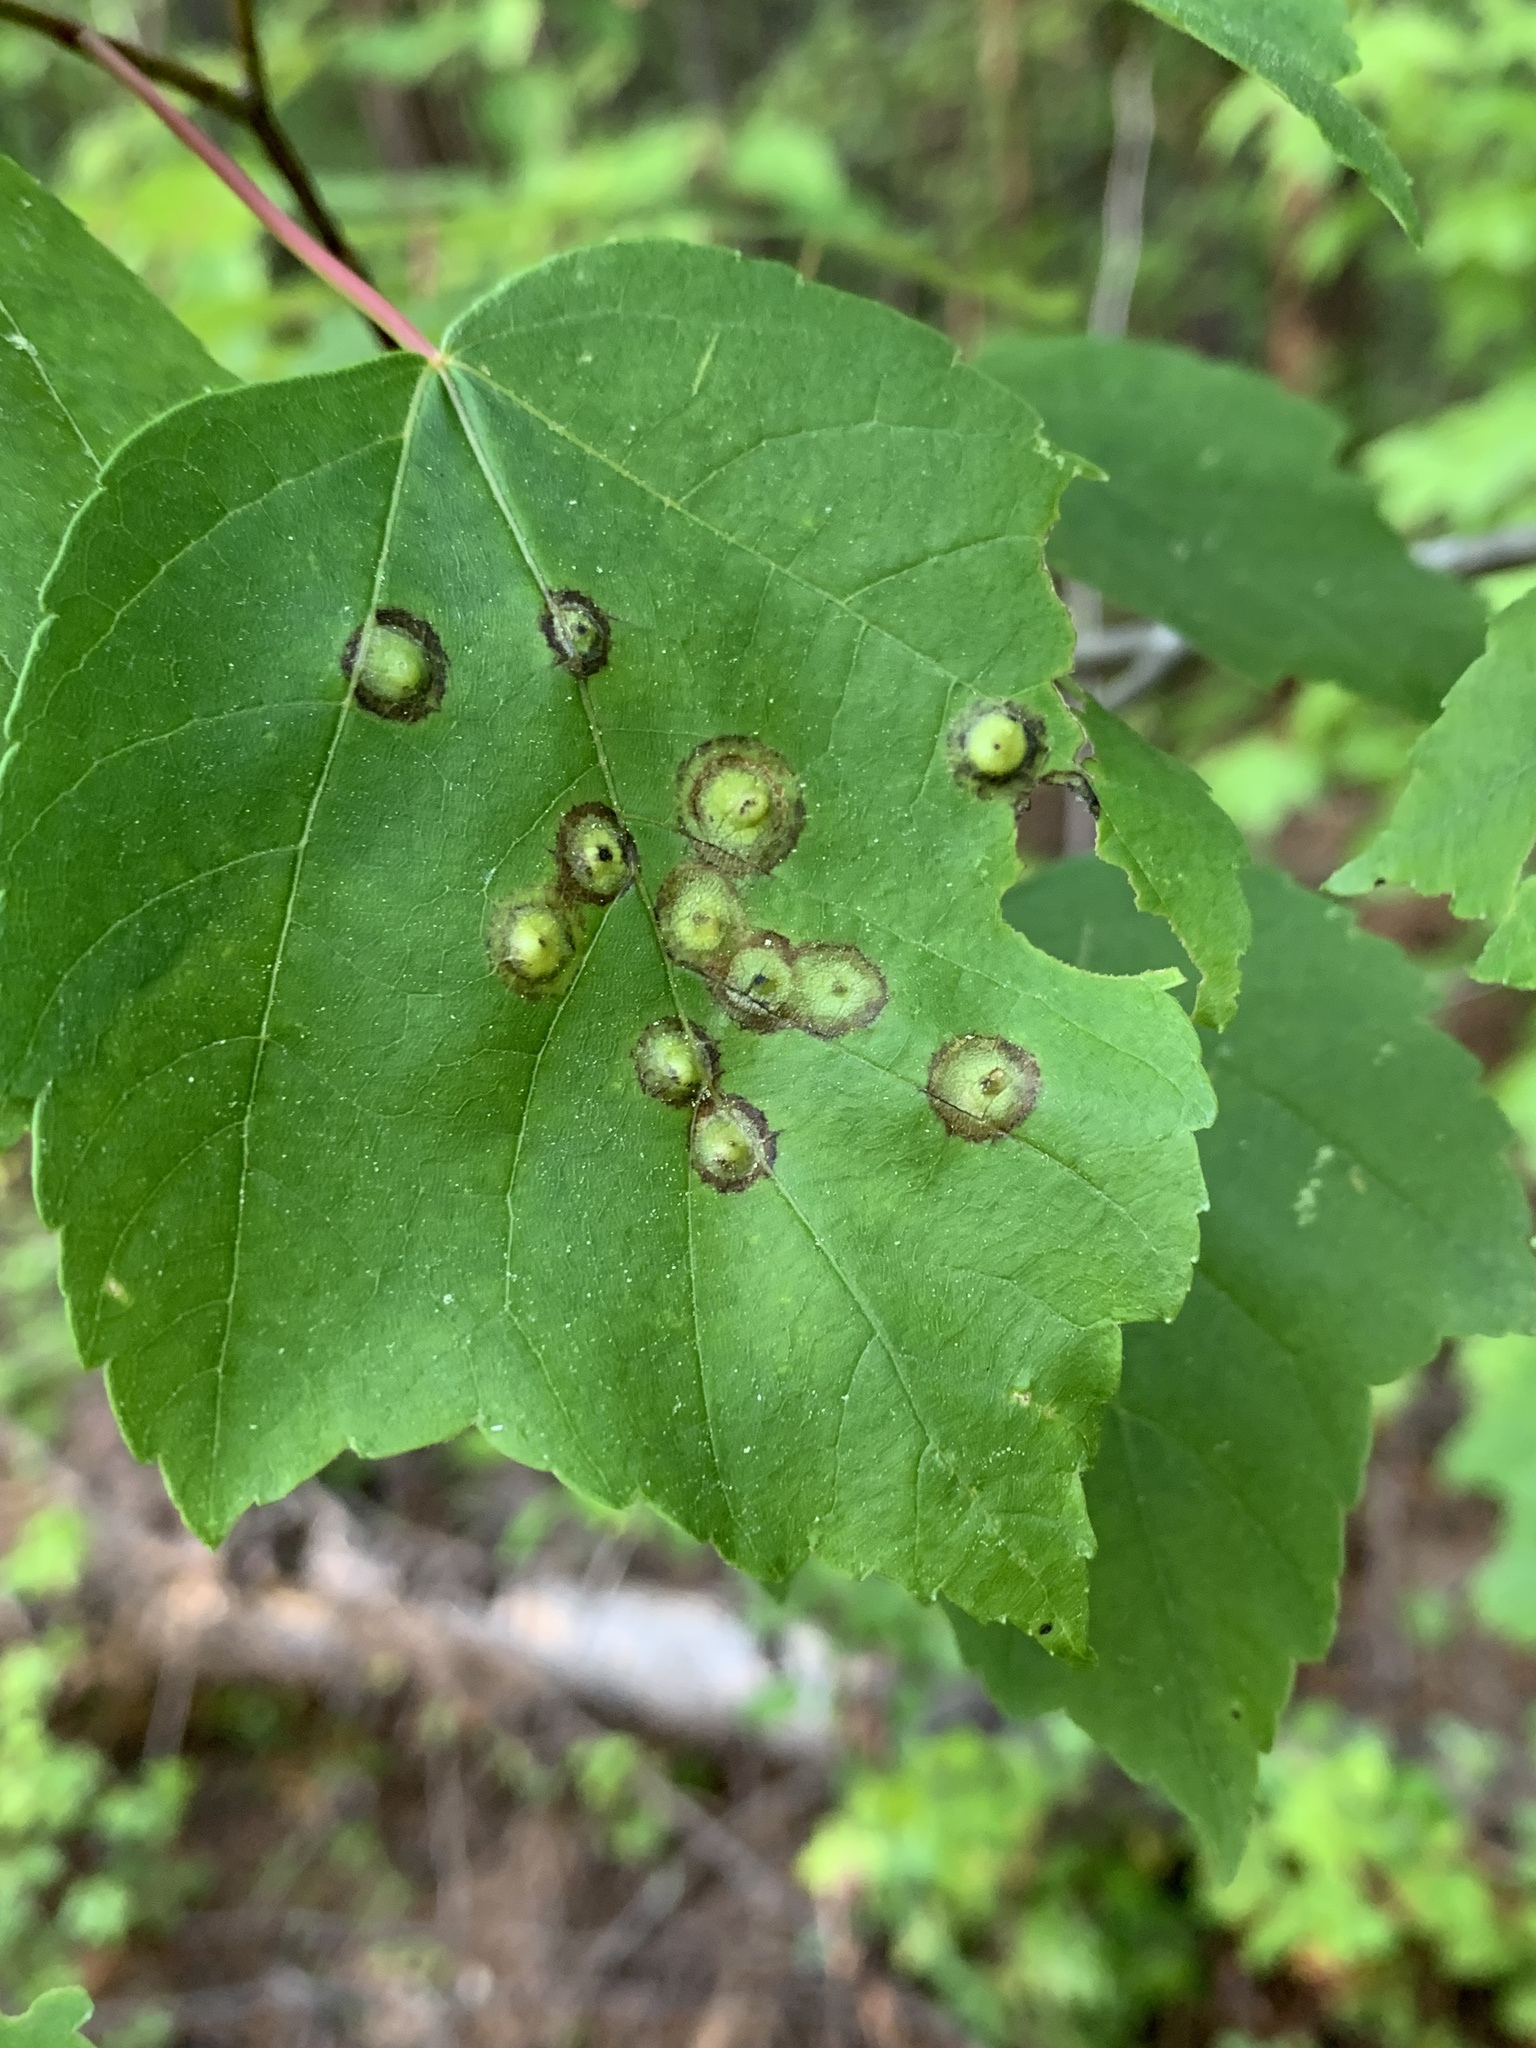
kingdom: Animalia
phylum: Arthropoda
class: Insecta
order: Diptera
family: Cecidomyiidae
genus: Acericecis
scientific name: Acericecis ocellaris
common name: Ocellate gall midge
